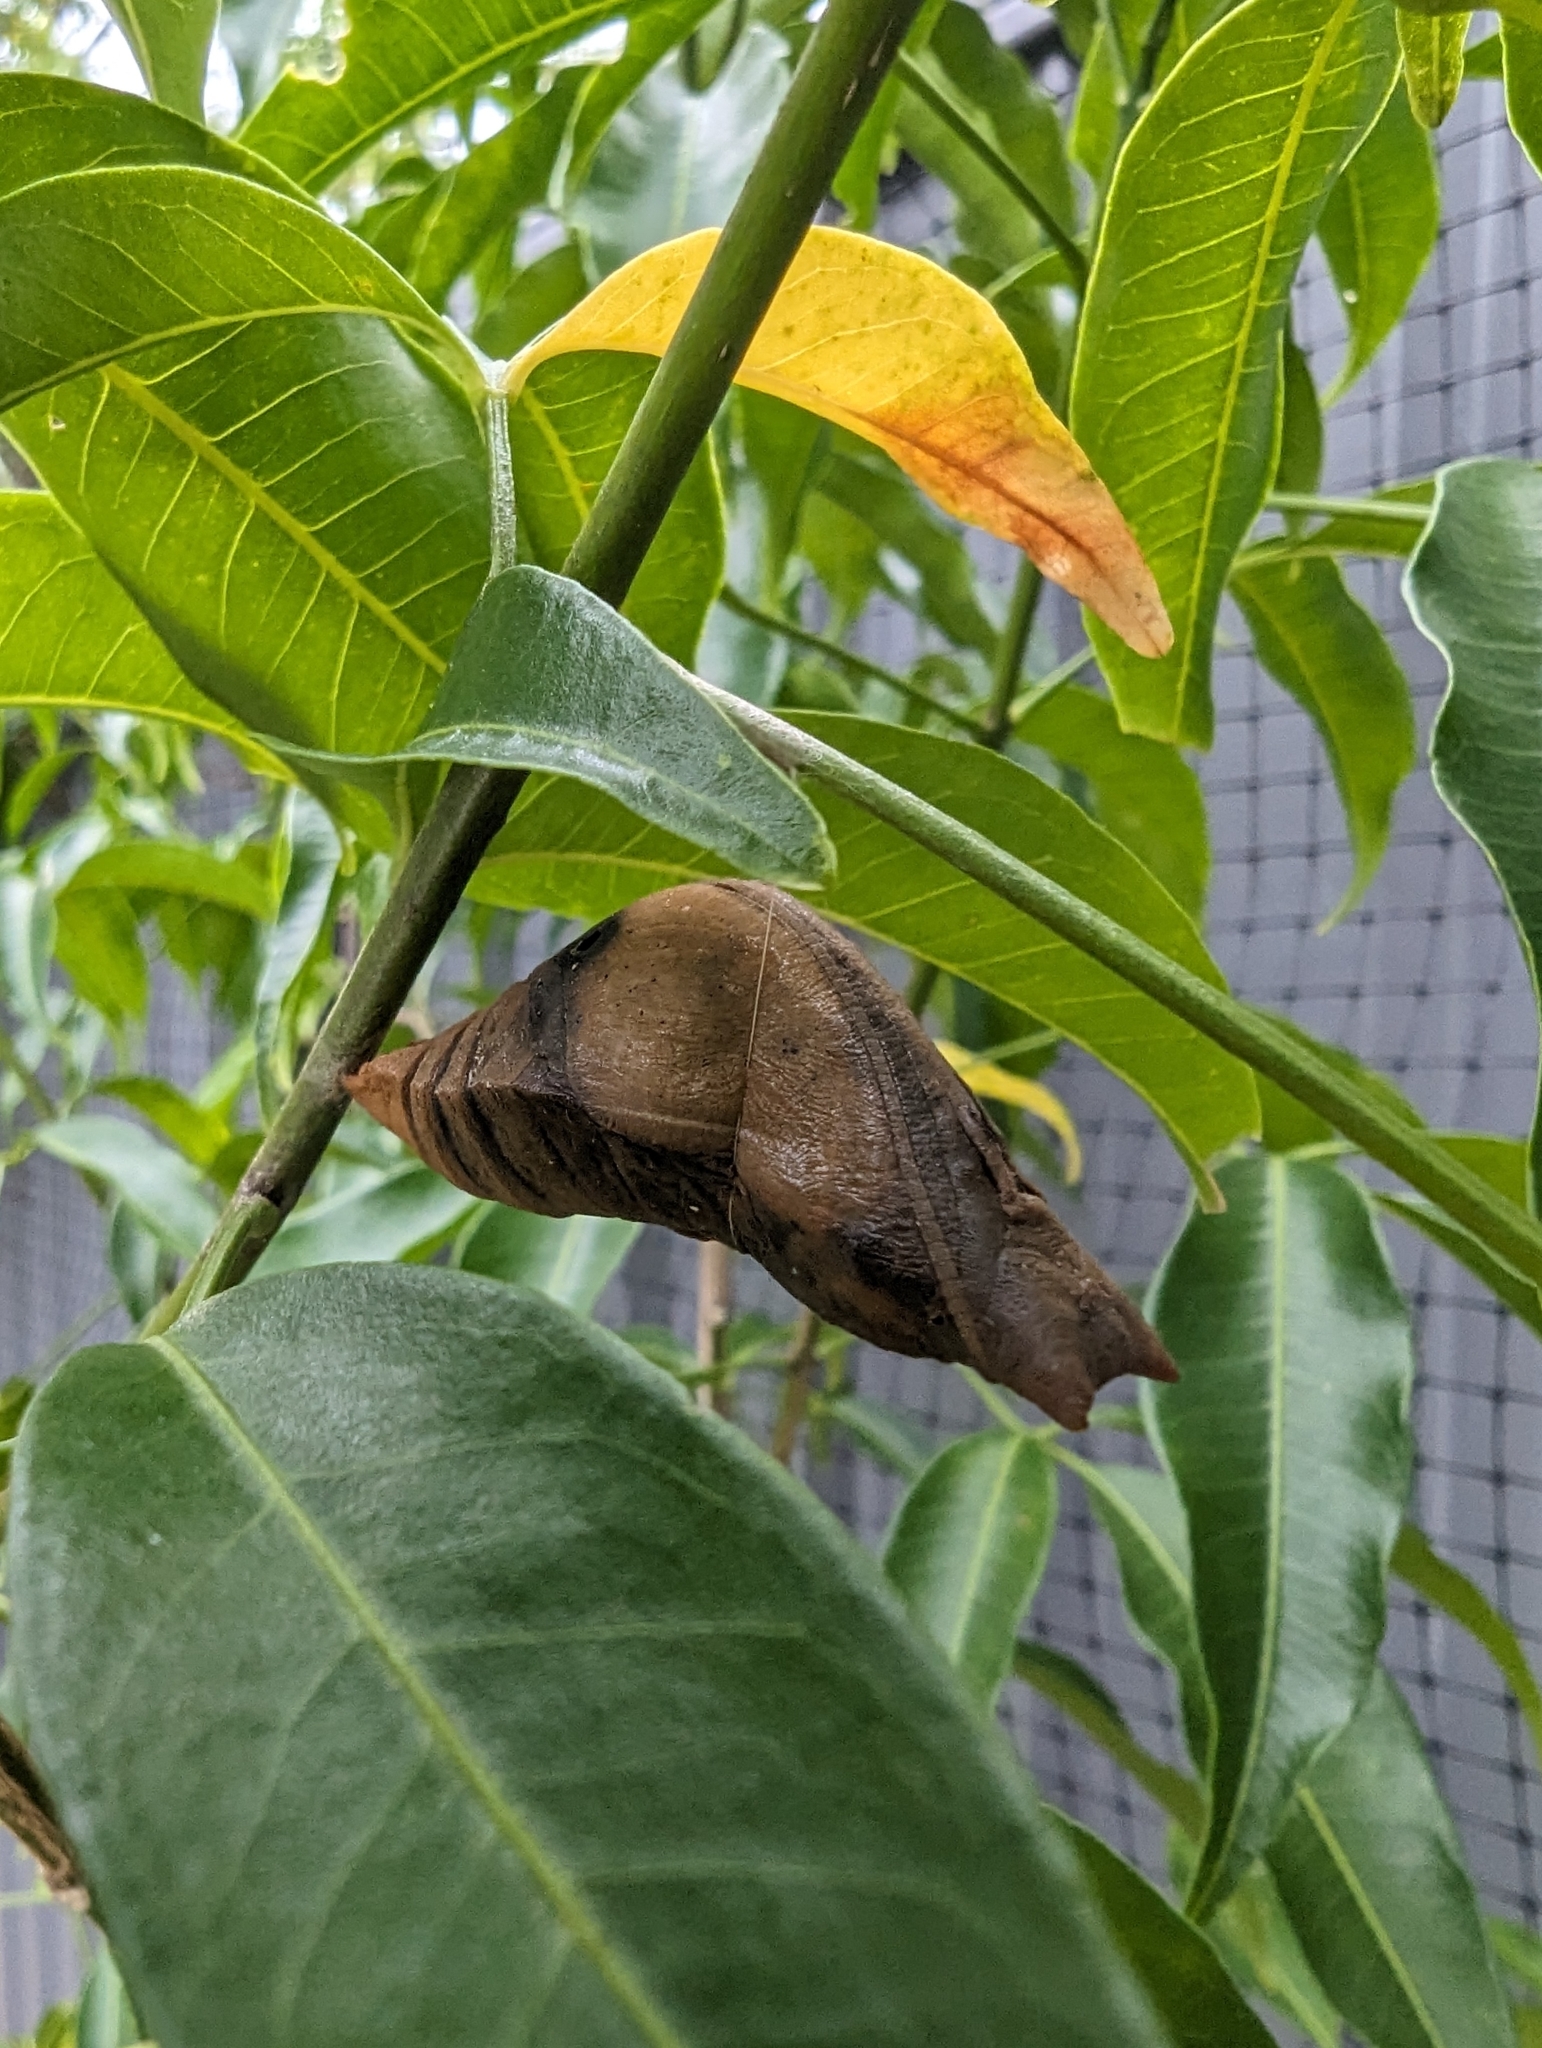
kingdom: Animalia
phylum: Arthropoda
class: Insecta
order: Lepidoptera
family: Papilionidae
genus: Papilio
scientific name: Papilio ulysses
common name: Blue emperor
